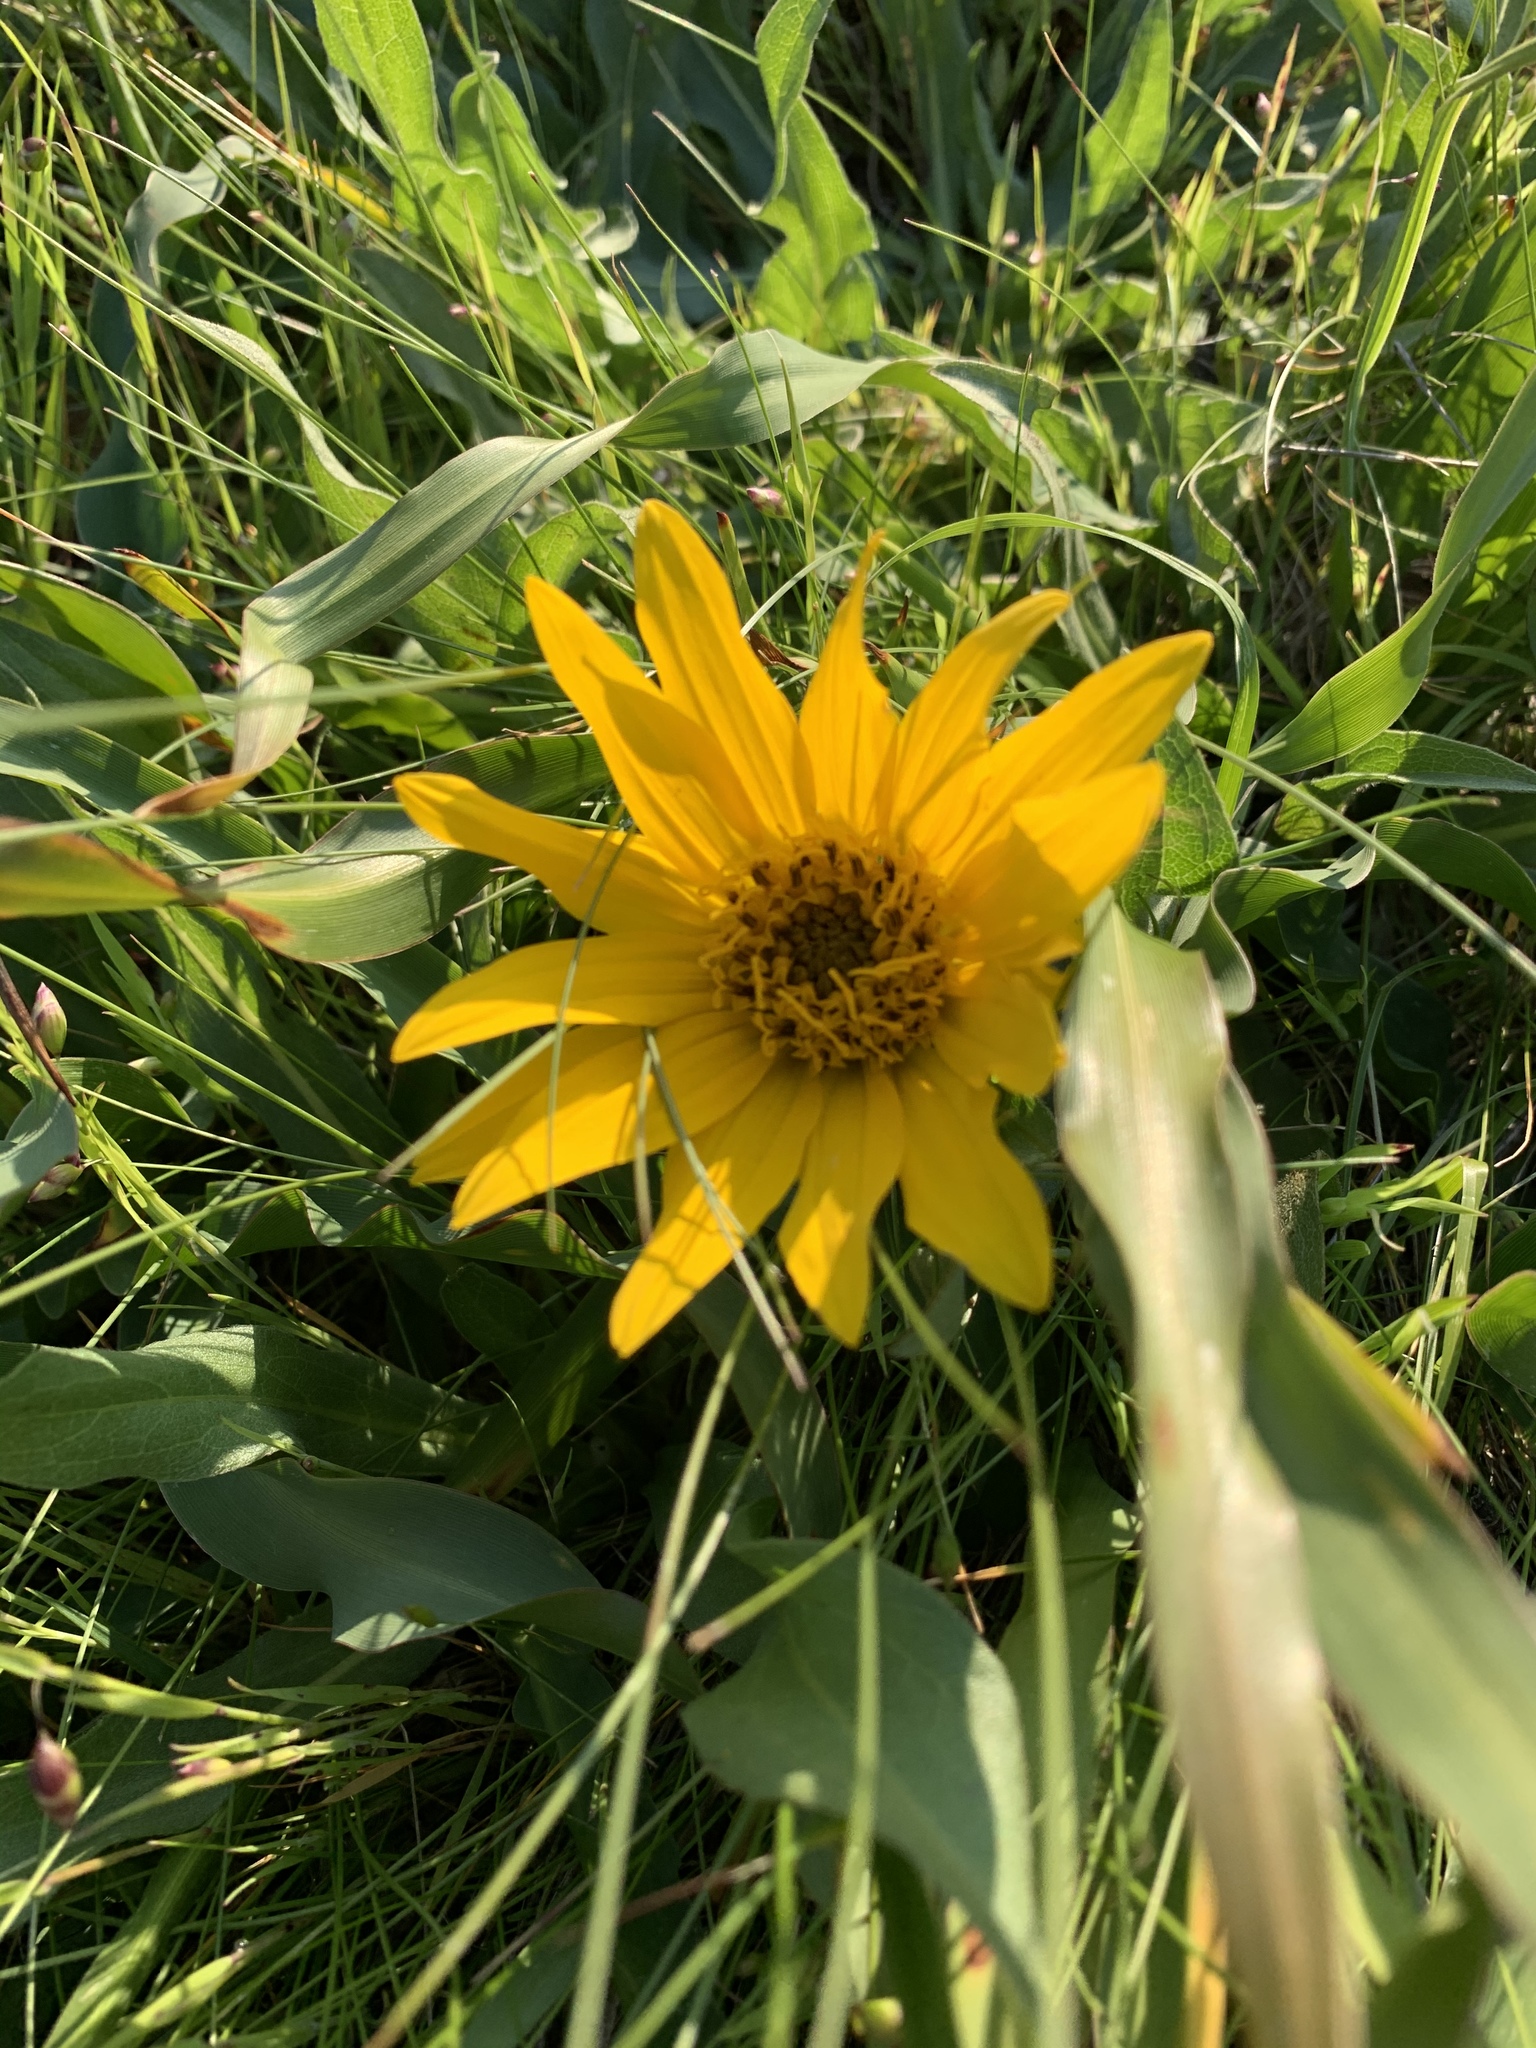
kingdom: Plantae
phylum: Tracheophyta
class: Magnoliopsida
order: Asterales
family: Asteraceae
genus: Wyethia
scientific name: Wyethia angustifolia
